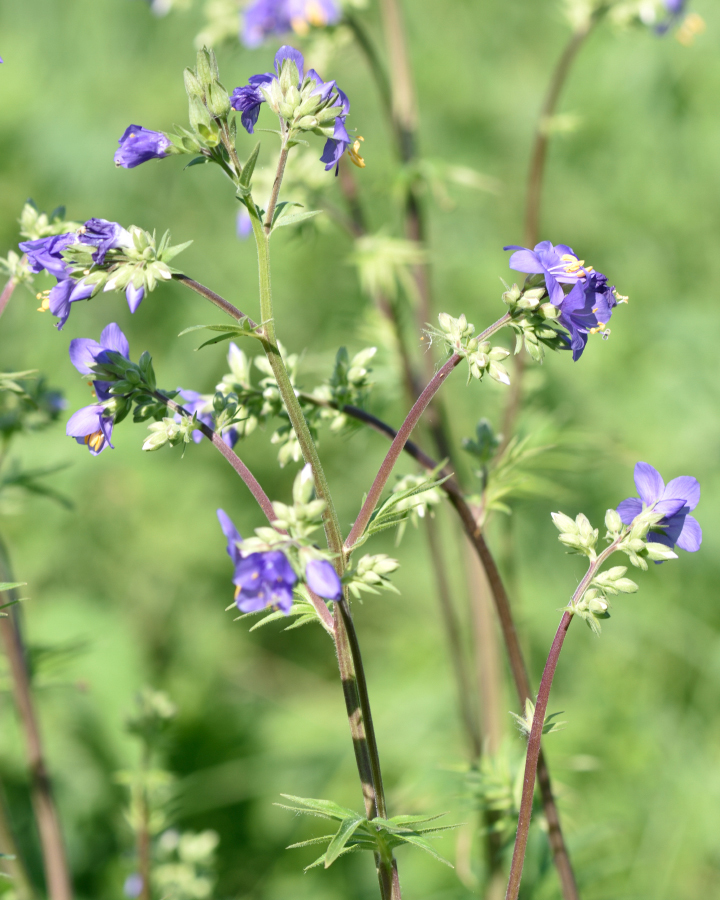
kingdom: Plantae
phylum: Tracheophyta
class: Magnoliopsida
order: Ericales
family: Polemoniaceae
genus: Polemonium
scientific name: Polemonium caeruleum
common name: Jacob's-ladder
